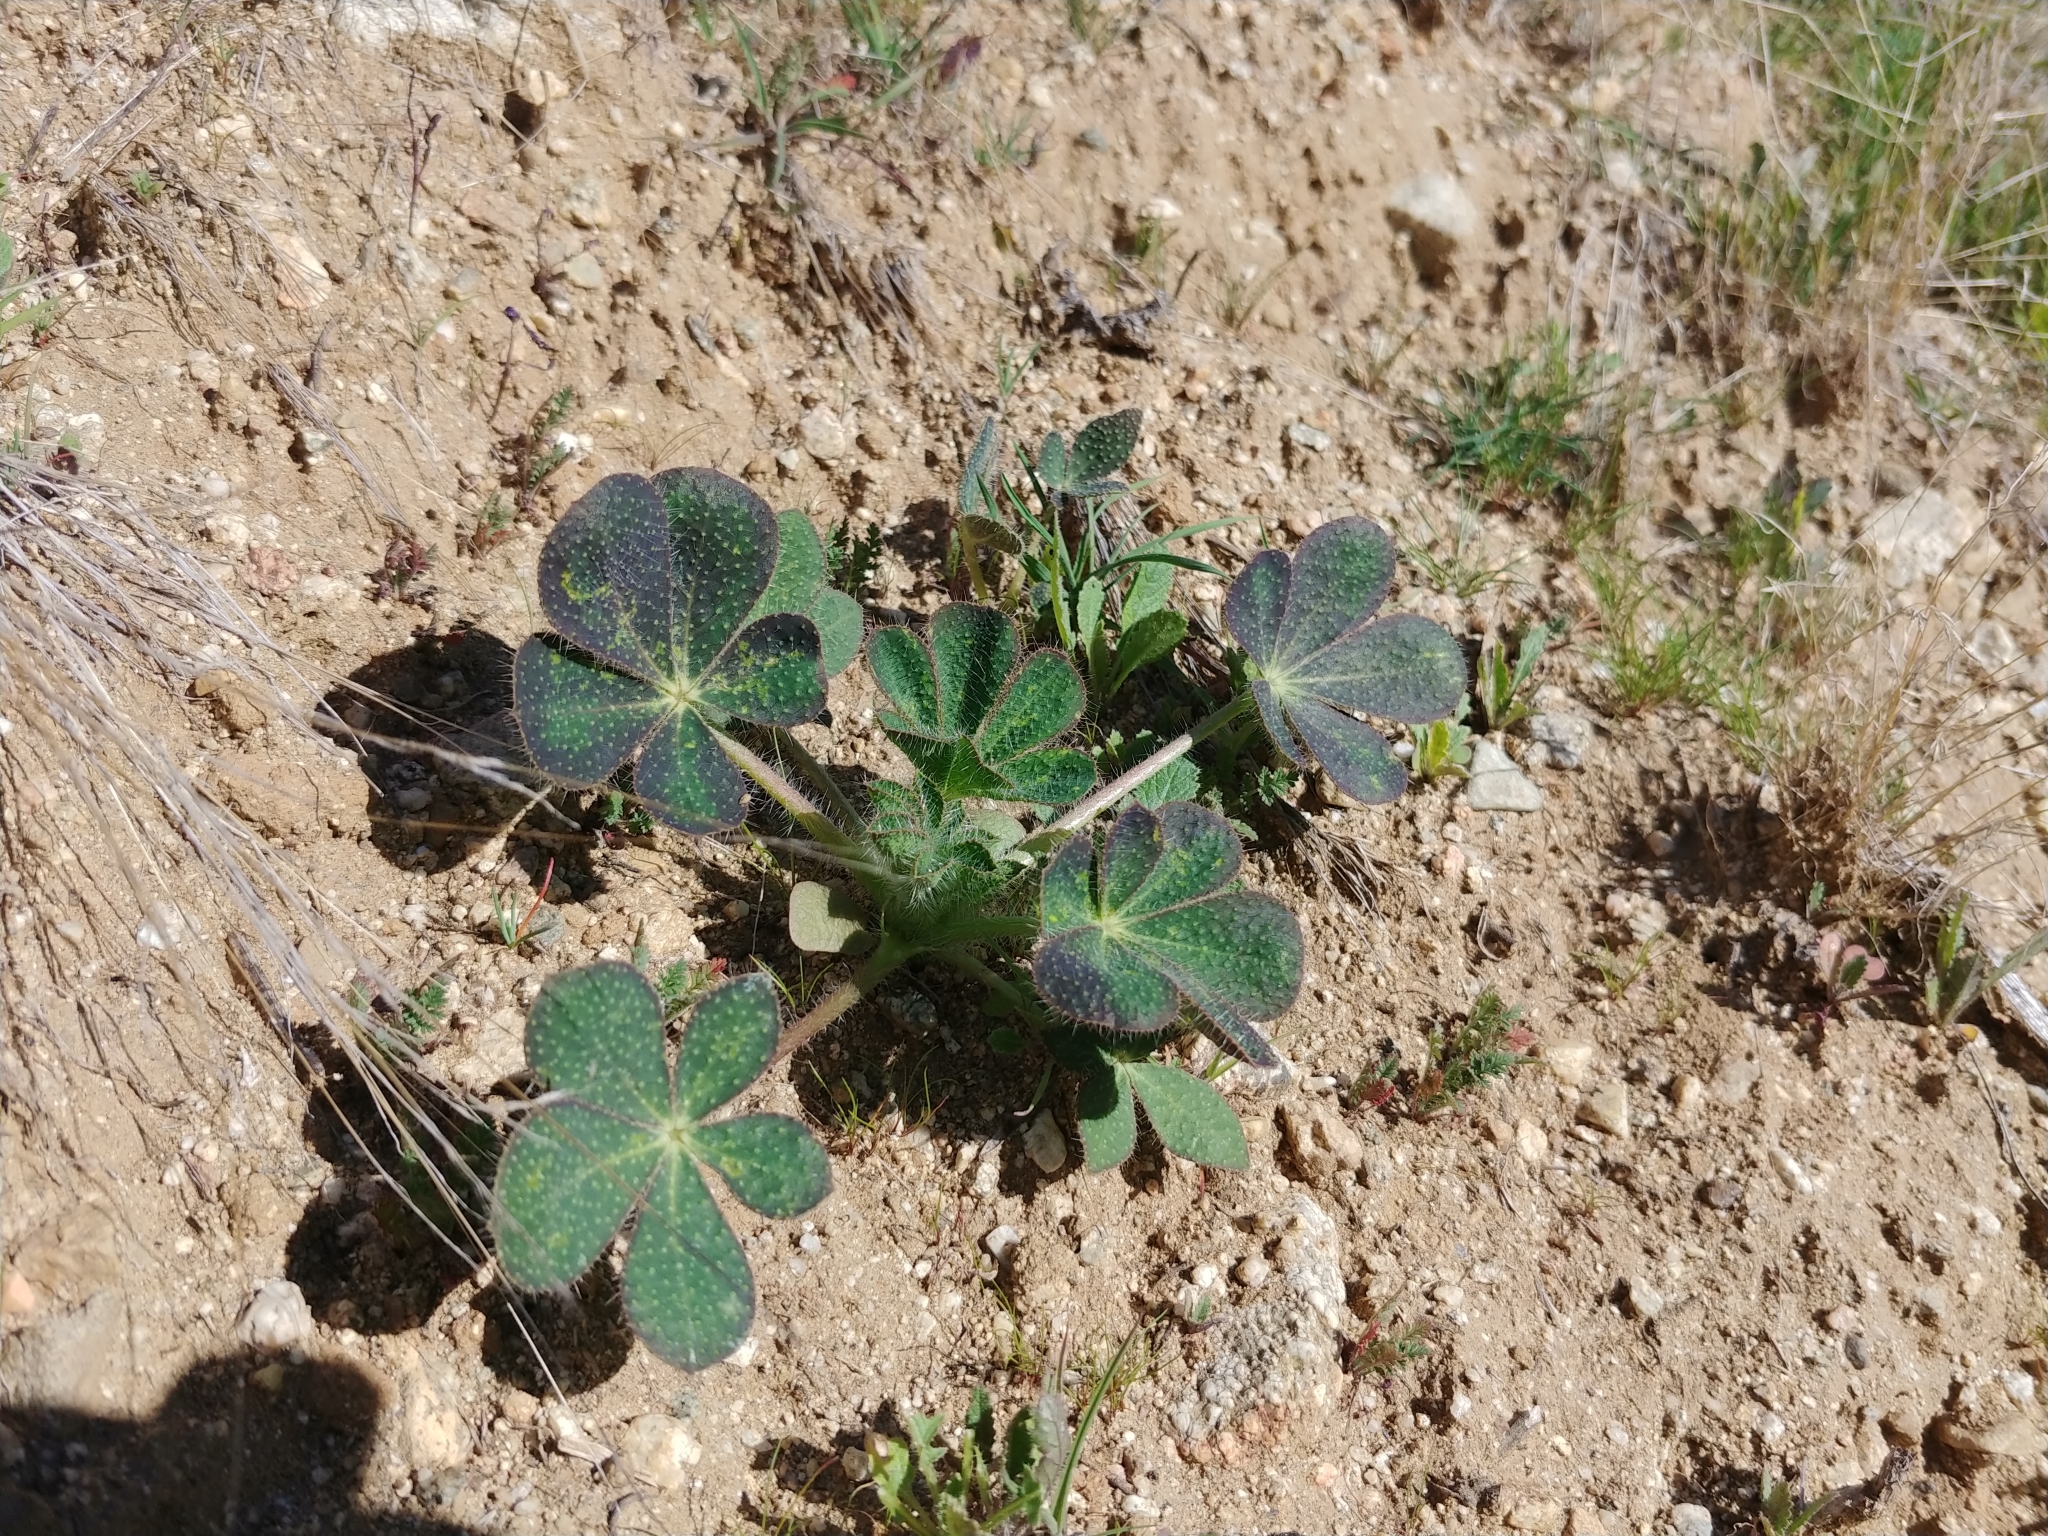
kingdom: Plantae
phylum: Tracheophyta
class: Magnoliopsida
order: Fabales
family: Fabaceae
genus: Lupinus
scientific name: Lupinus hirsutissimus
